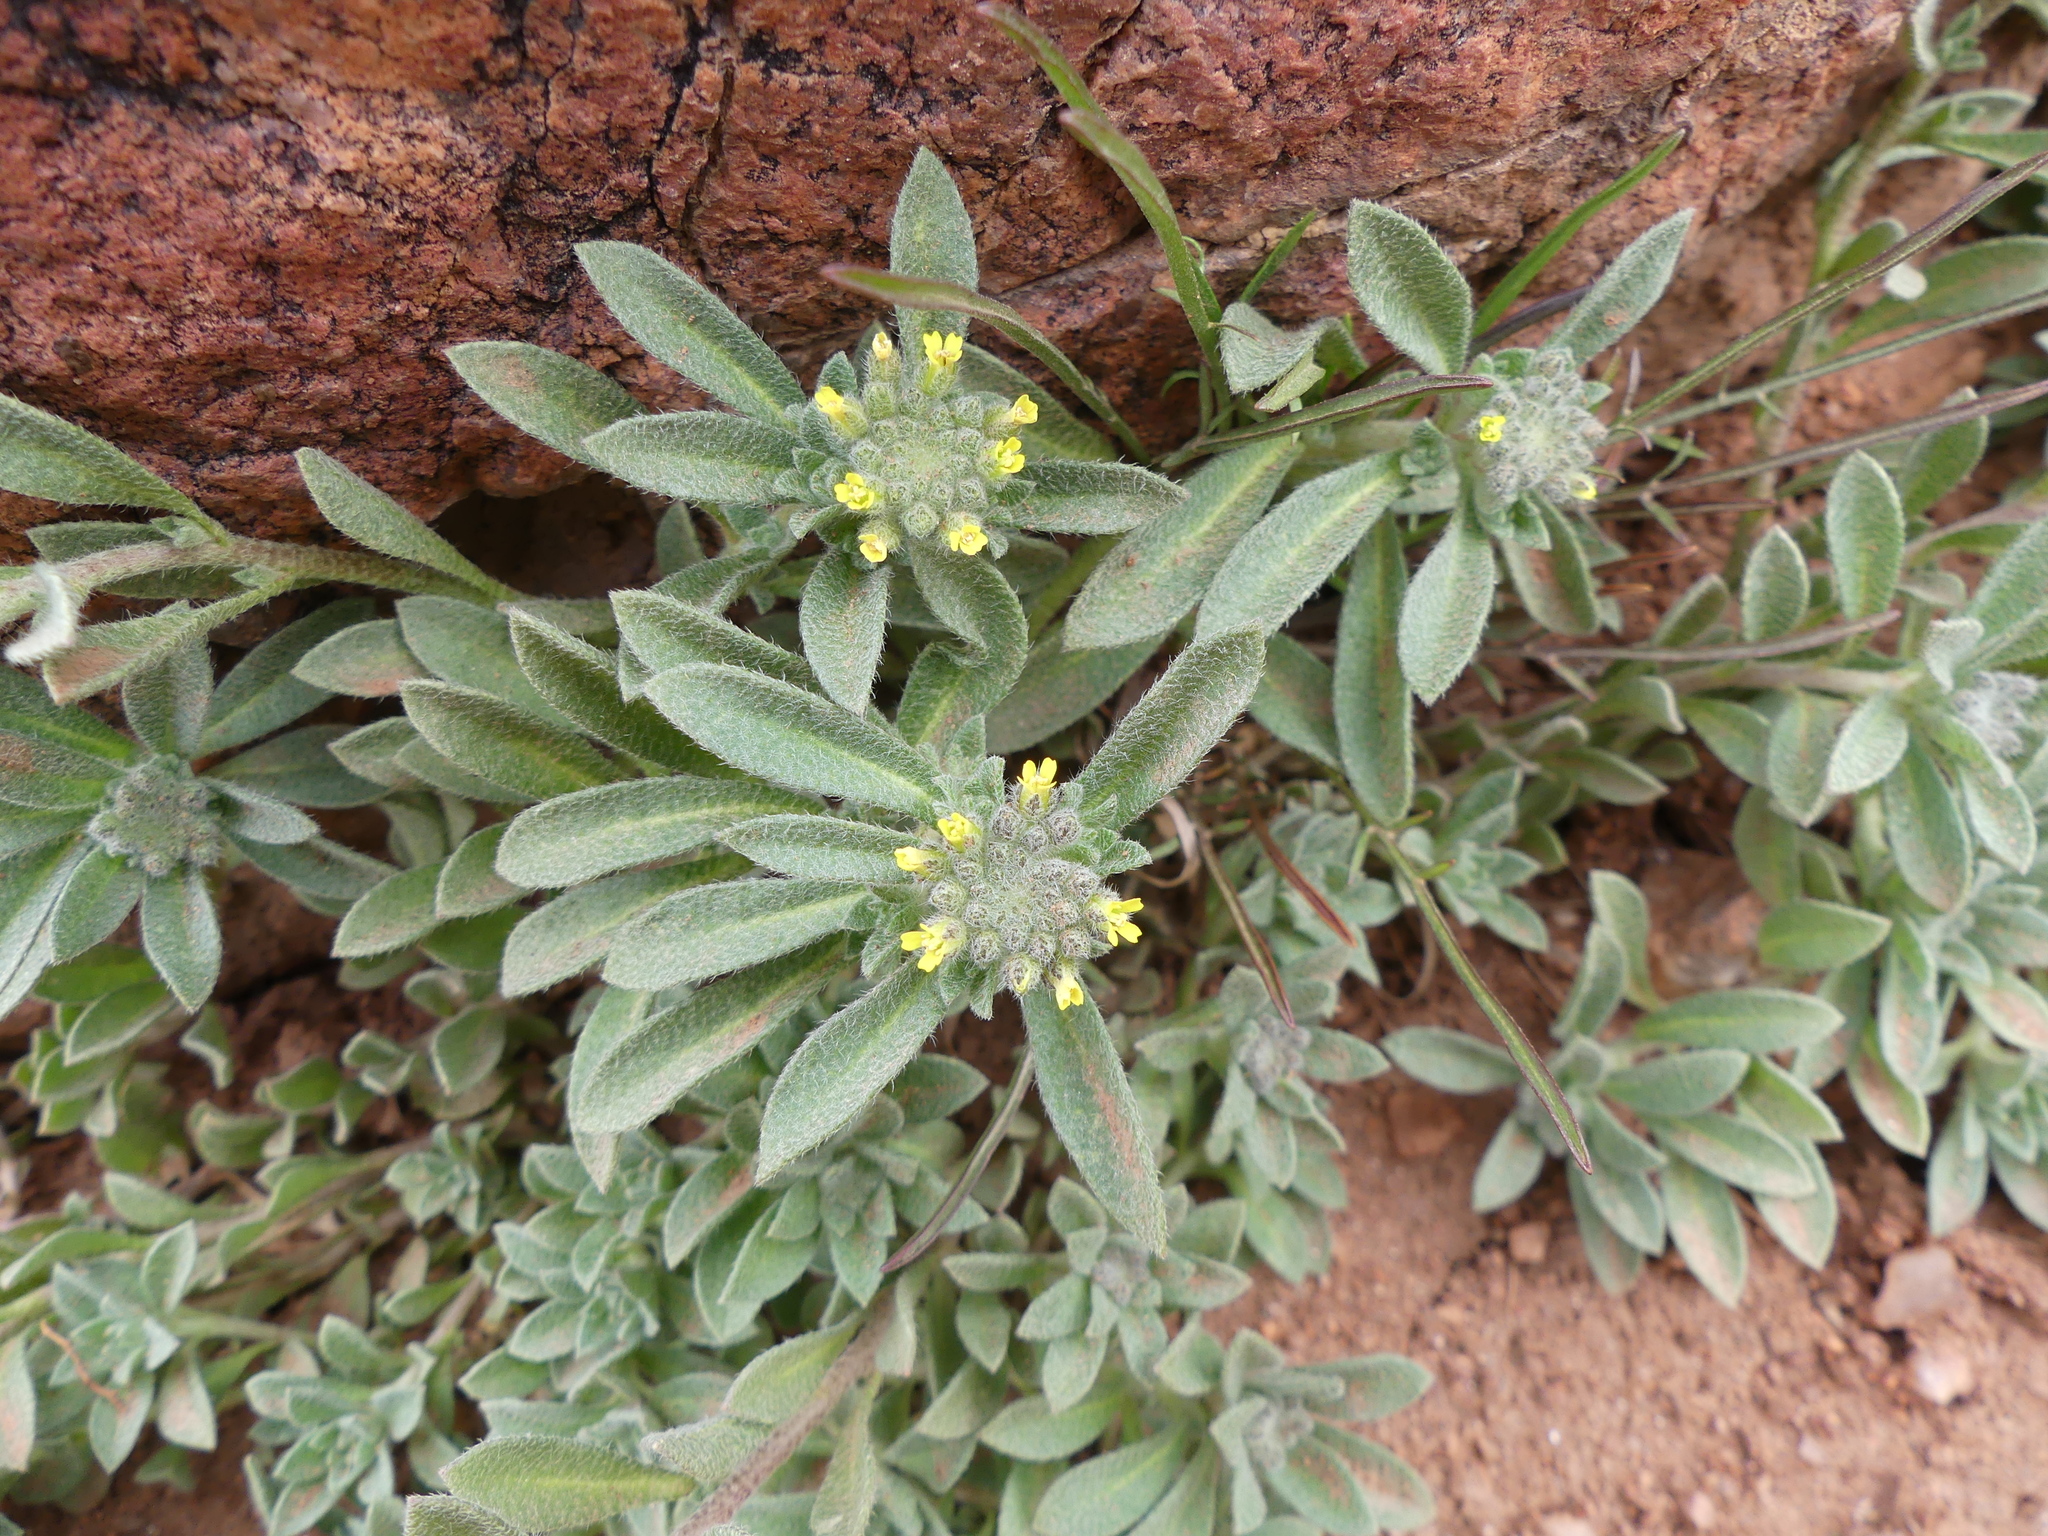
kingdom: Plantae
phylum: Tracheophyta
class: Magnoliopsida
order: Brassicales
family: Brassicaceae
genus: Alyssum
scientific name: Alyssum simplex
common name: Alyssum
